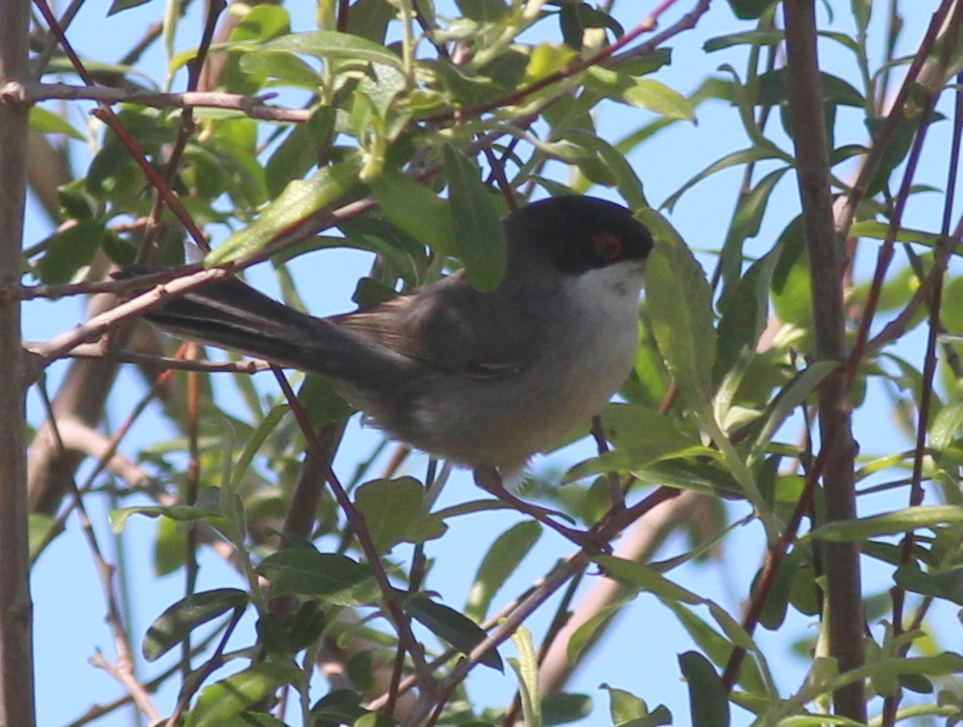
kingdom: Animalia
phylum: Chordata
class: Aves
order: Passeriformes
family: Sylviidae
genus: Curruca
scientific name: Curruca melanocephala
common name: Sardinian warbler
